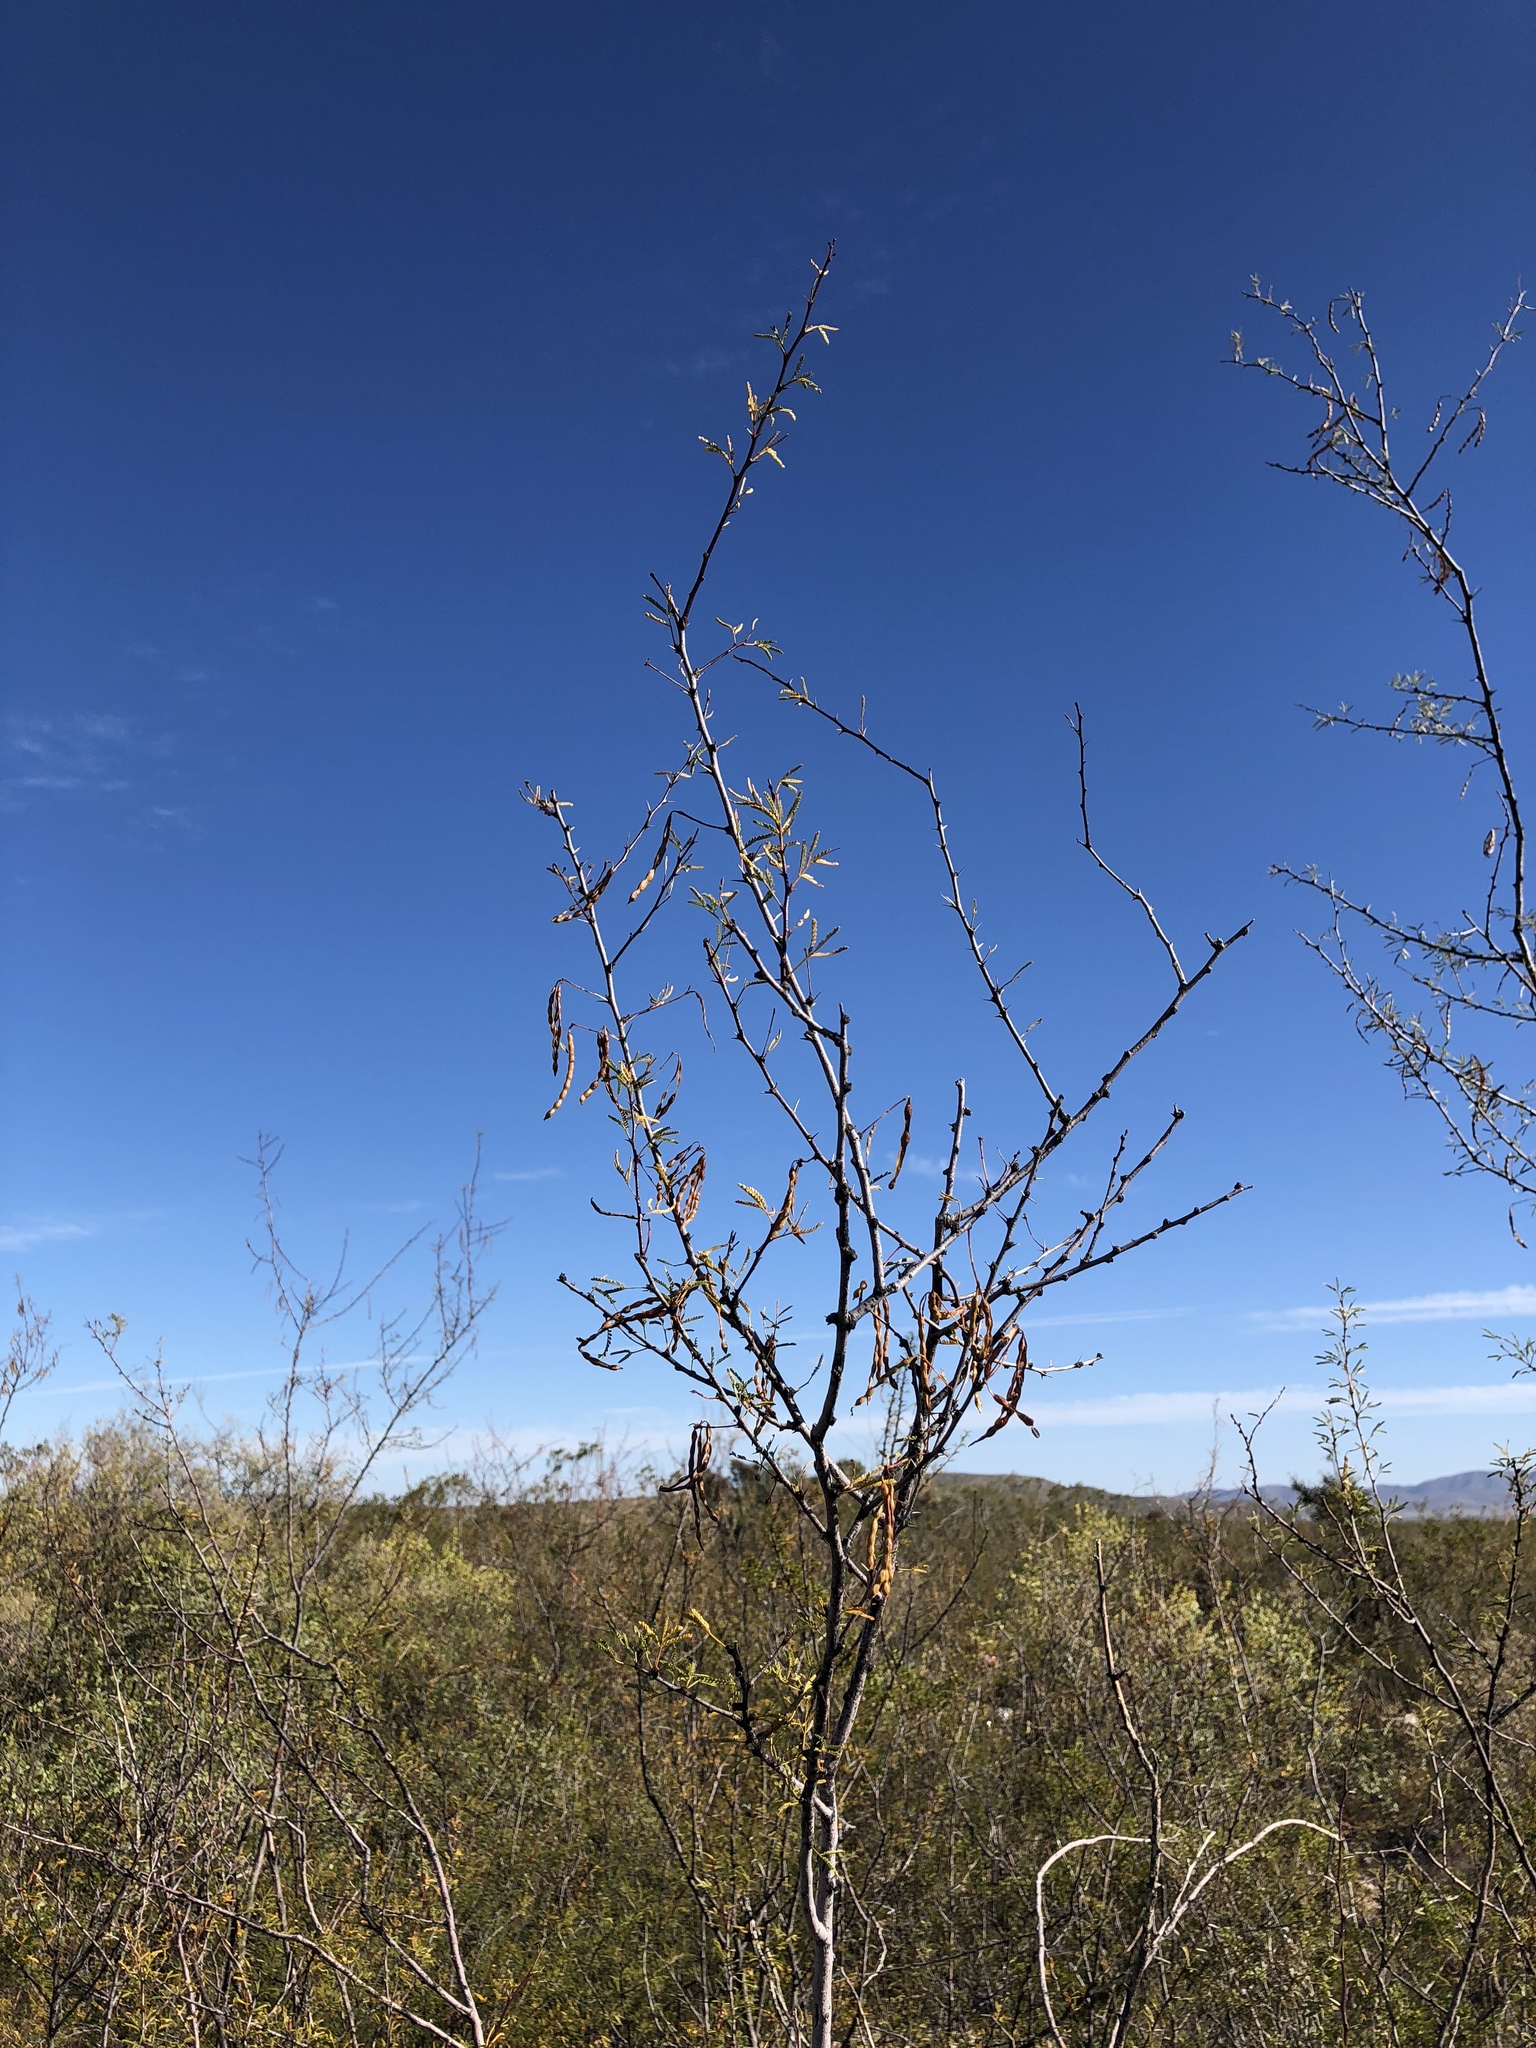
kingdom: Plantae
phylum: Tracheophyta
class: Magnoliopsida
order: Fabales
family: Fabaceae
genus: Vachellia
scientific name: Vachellia constricta
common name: Mescat acacia
